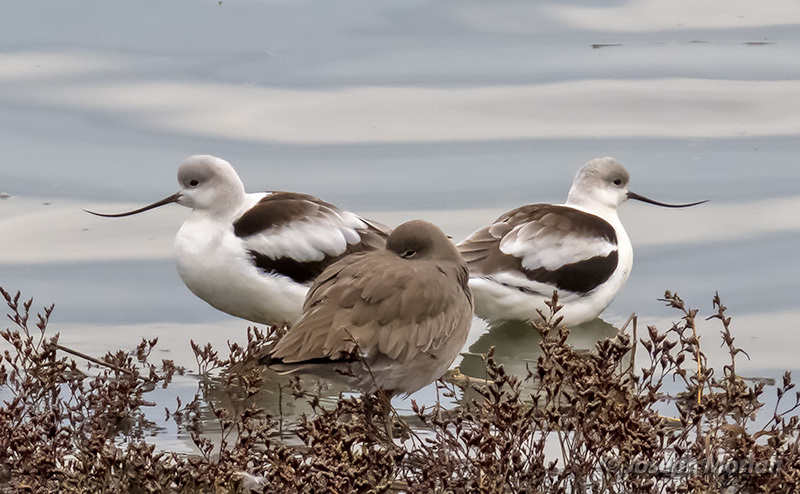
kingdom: Animalia
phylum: Chordata
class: Aves
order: Charadriiformes
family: Recurvirostridae
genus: Recurvirostra
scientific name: Recurvirostra americana
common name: American avocet
